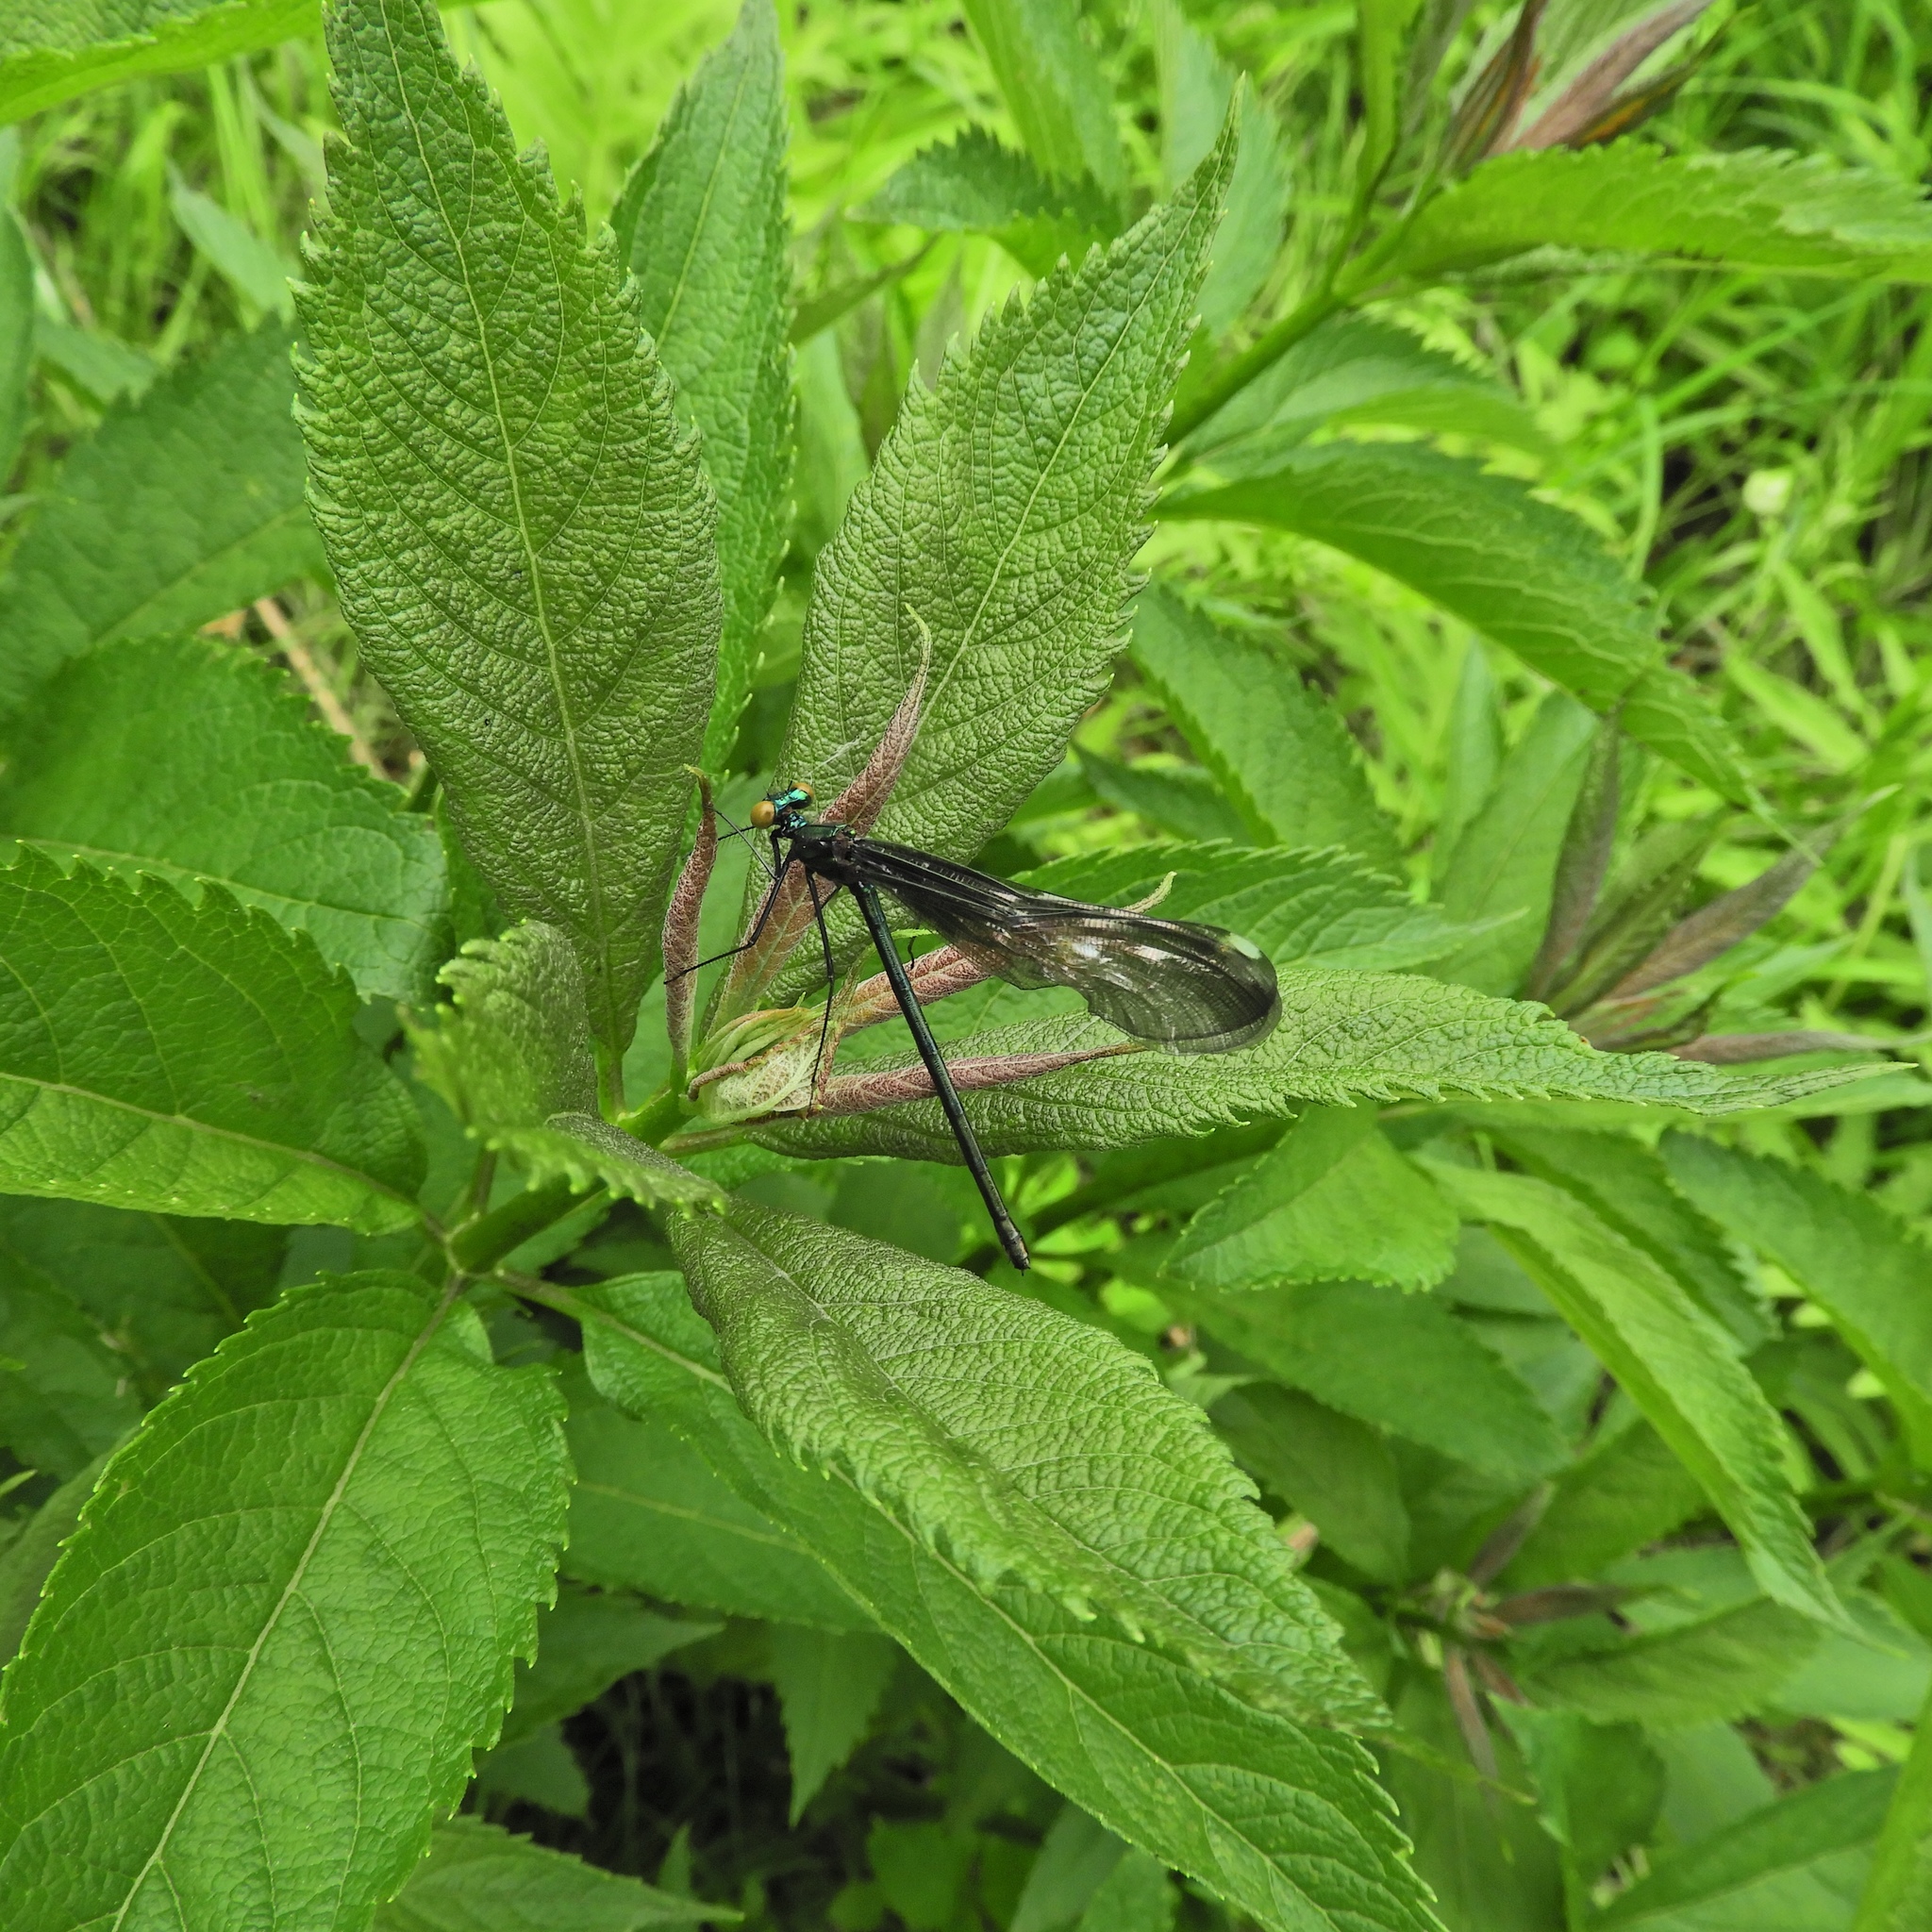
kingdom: Animalia
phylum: Arthropoda
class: Insecta
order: Odonata
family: Calopterygidae
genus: Calopteryx
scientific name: Calopteryx maculata
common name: Ebony jewelwing
